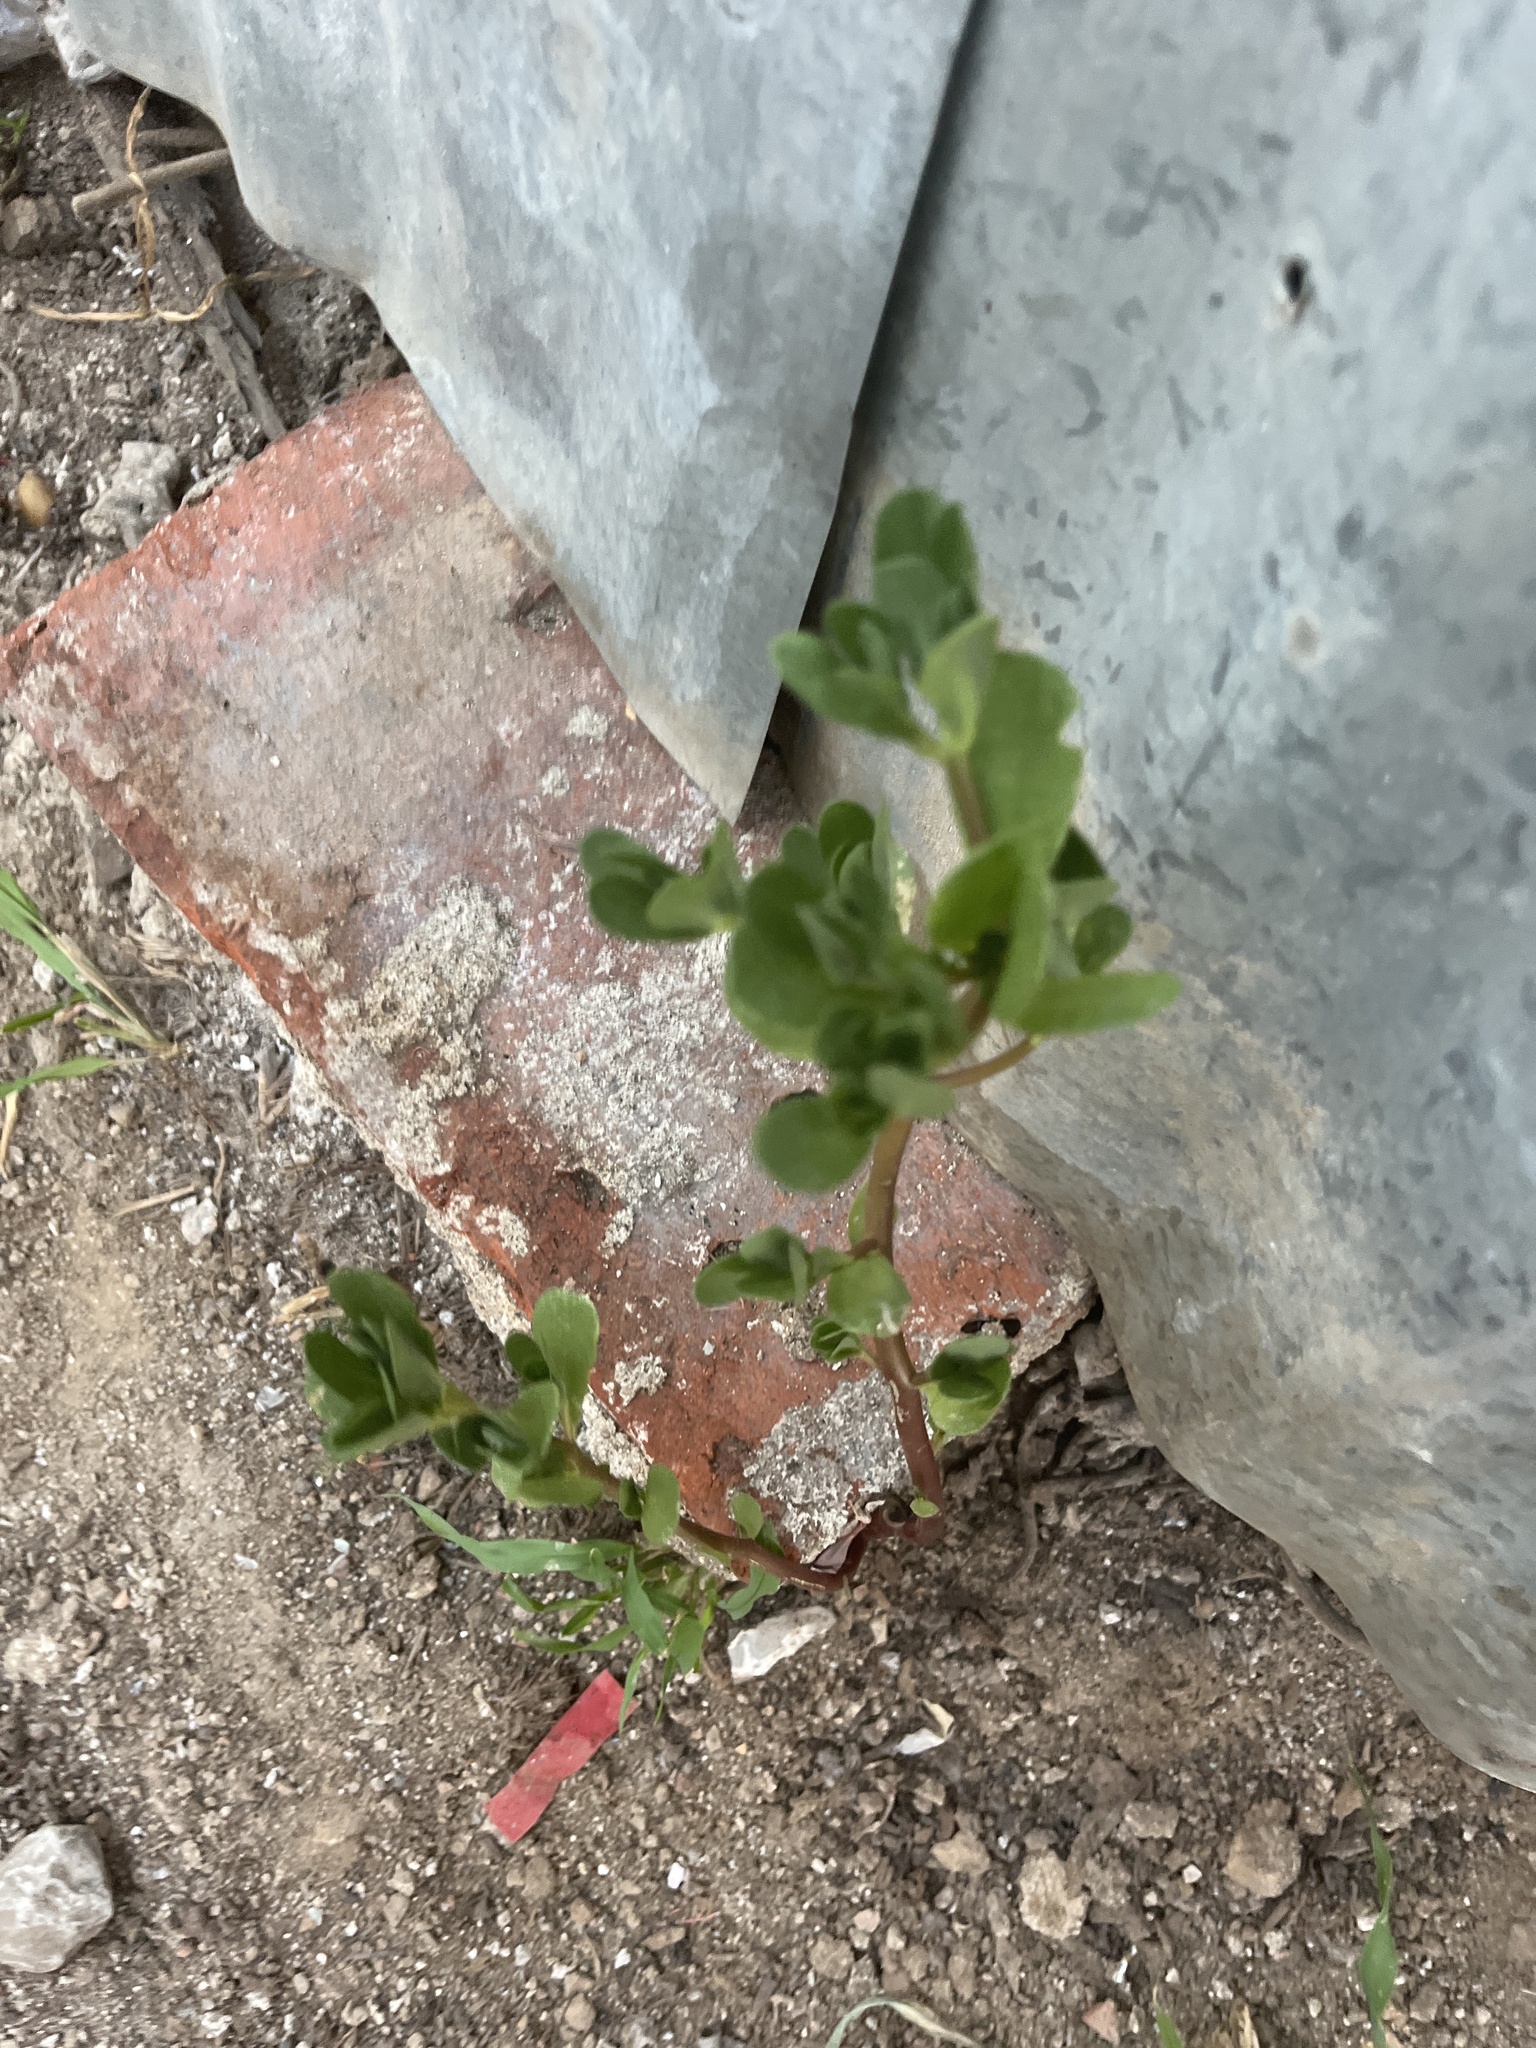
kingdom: Plantae
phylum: Tracheophyta
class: Magnoliopsida
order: Caryophyllales
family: Portulacaceae
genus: Portulaca
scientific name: Portulaca oleracea
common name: Common purslane
